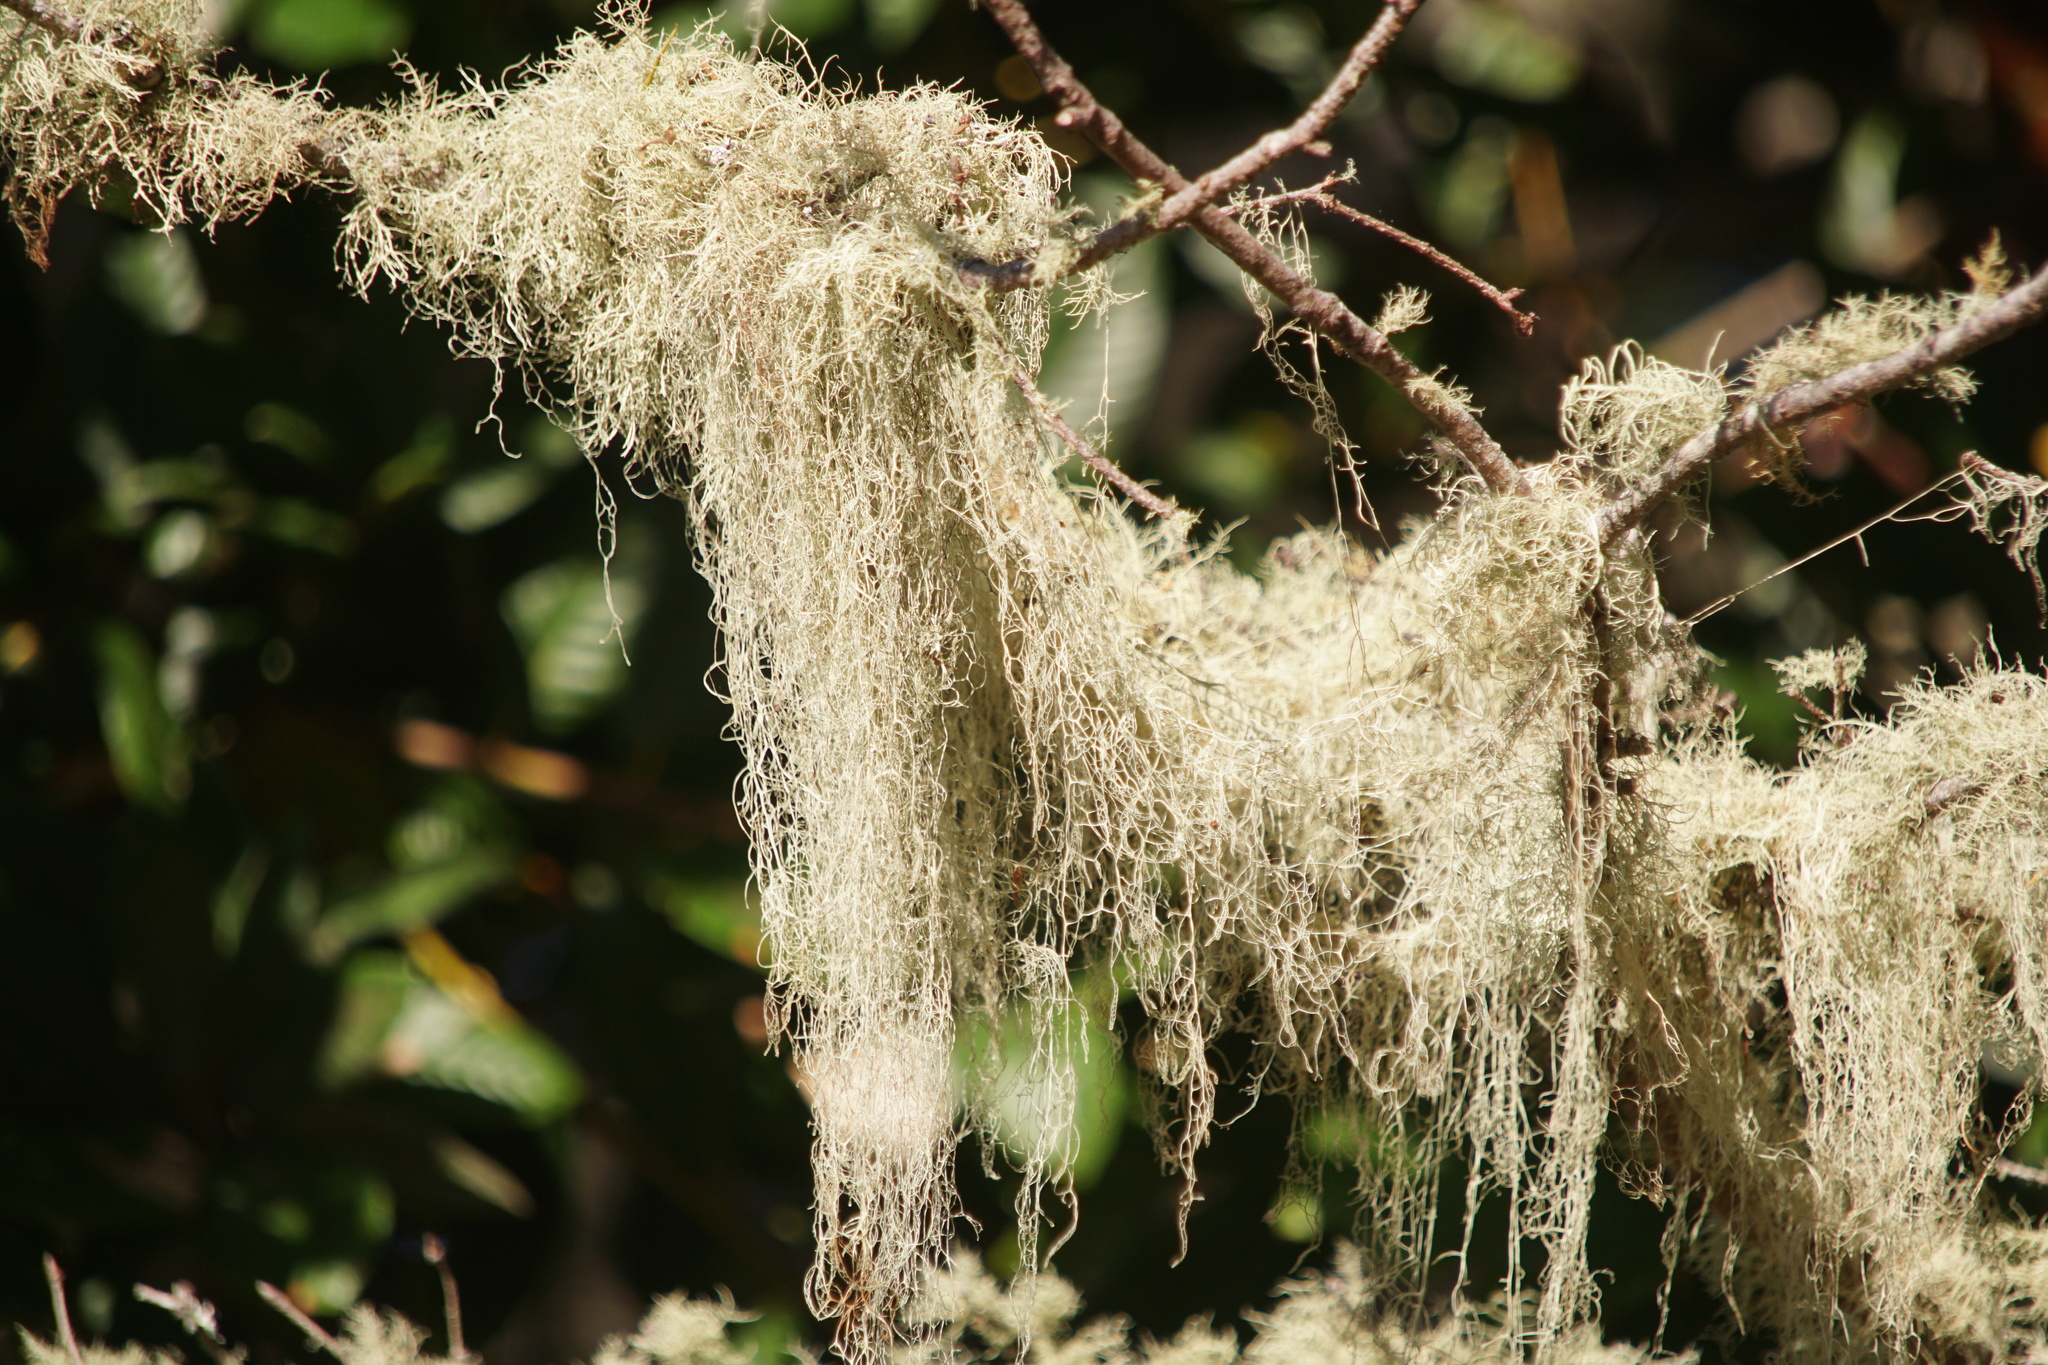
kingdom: Fungi
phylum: Ascomycota
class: Lecanoromycetes
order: Lecanorales
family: Ramalinaceae
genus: Ramalina
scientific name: Ramalina menziesii
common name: Lace lichen
